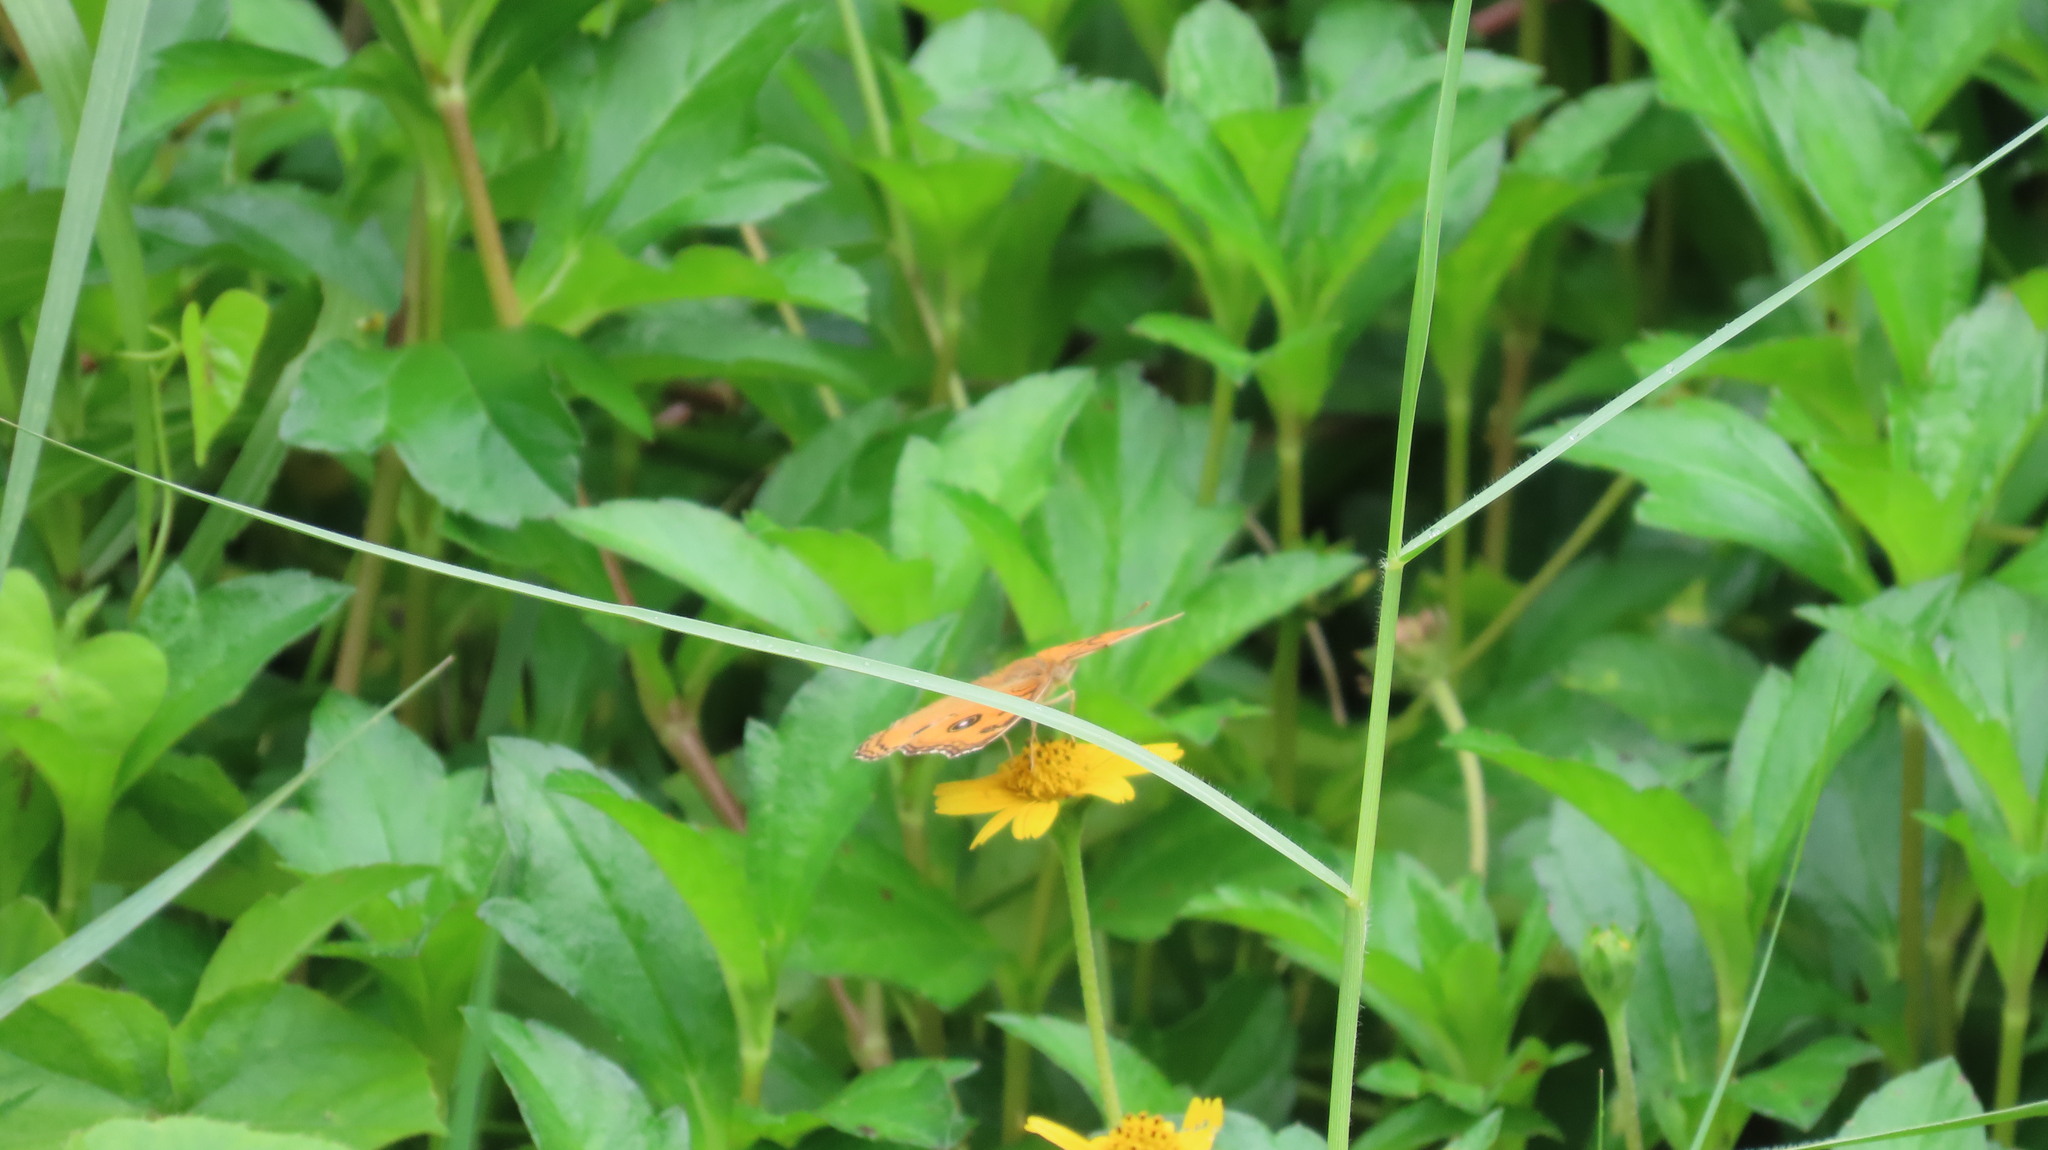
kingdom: Animalia
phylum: Arthropoda
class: Insecta
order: Lepidoptera
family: Nymphalidae
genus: Junonia
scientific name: Junonia almana
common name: Peacock pansy
